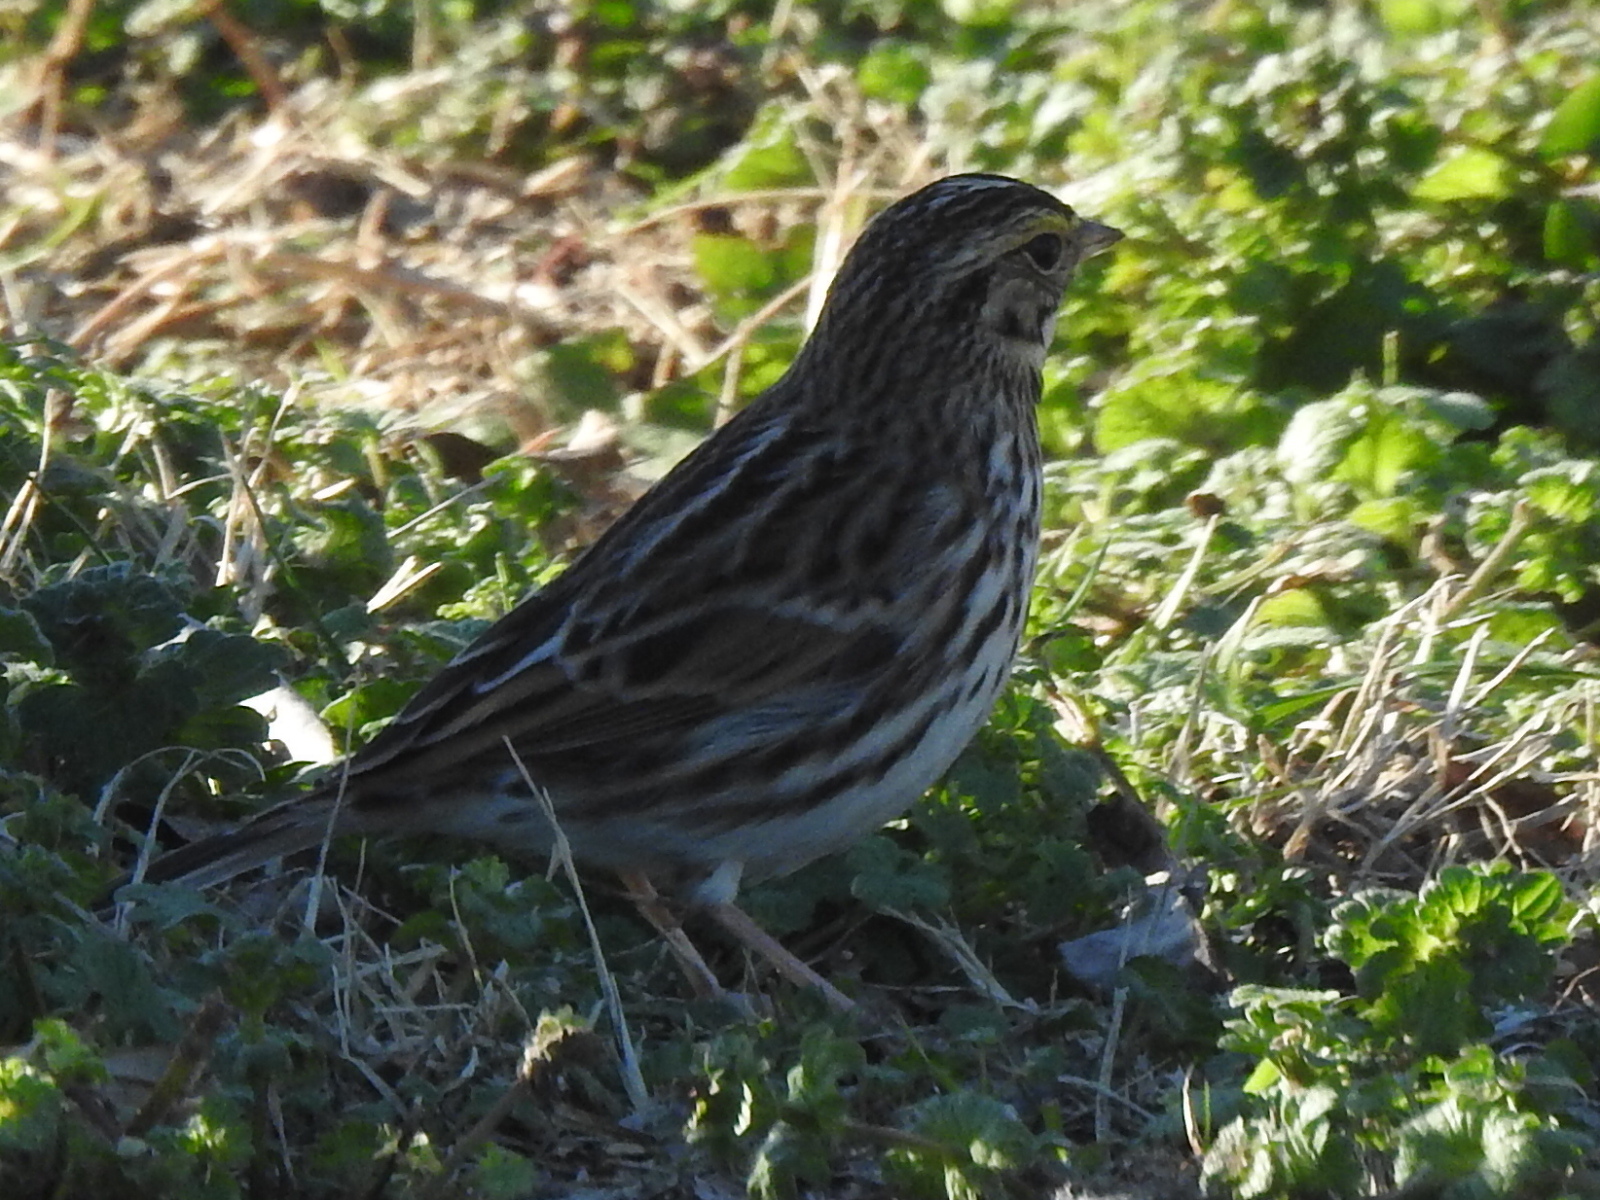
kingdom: Animalia
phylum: Chordata
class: Aves
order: Passeriformes
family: Passerellidae
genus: Passerculus
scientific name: Passerculus sandwichensis
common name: Savannah sparrow
